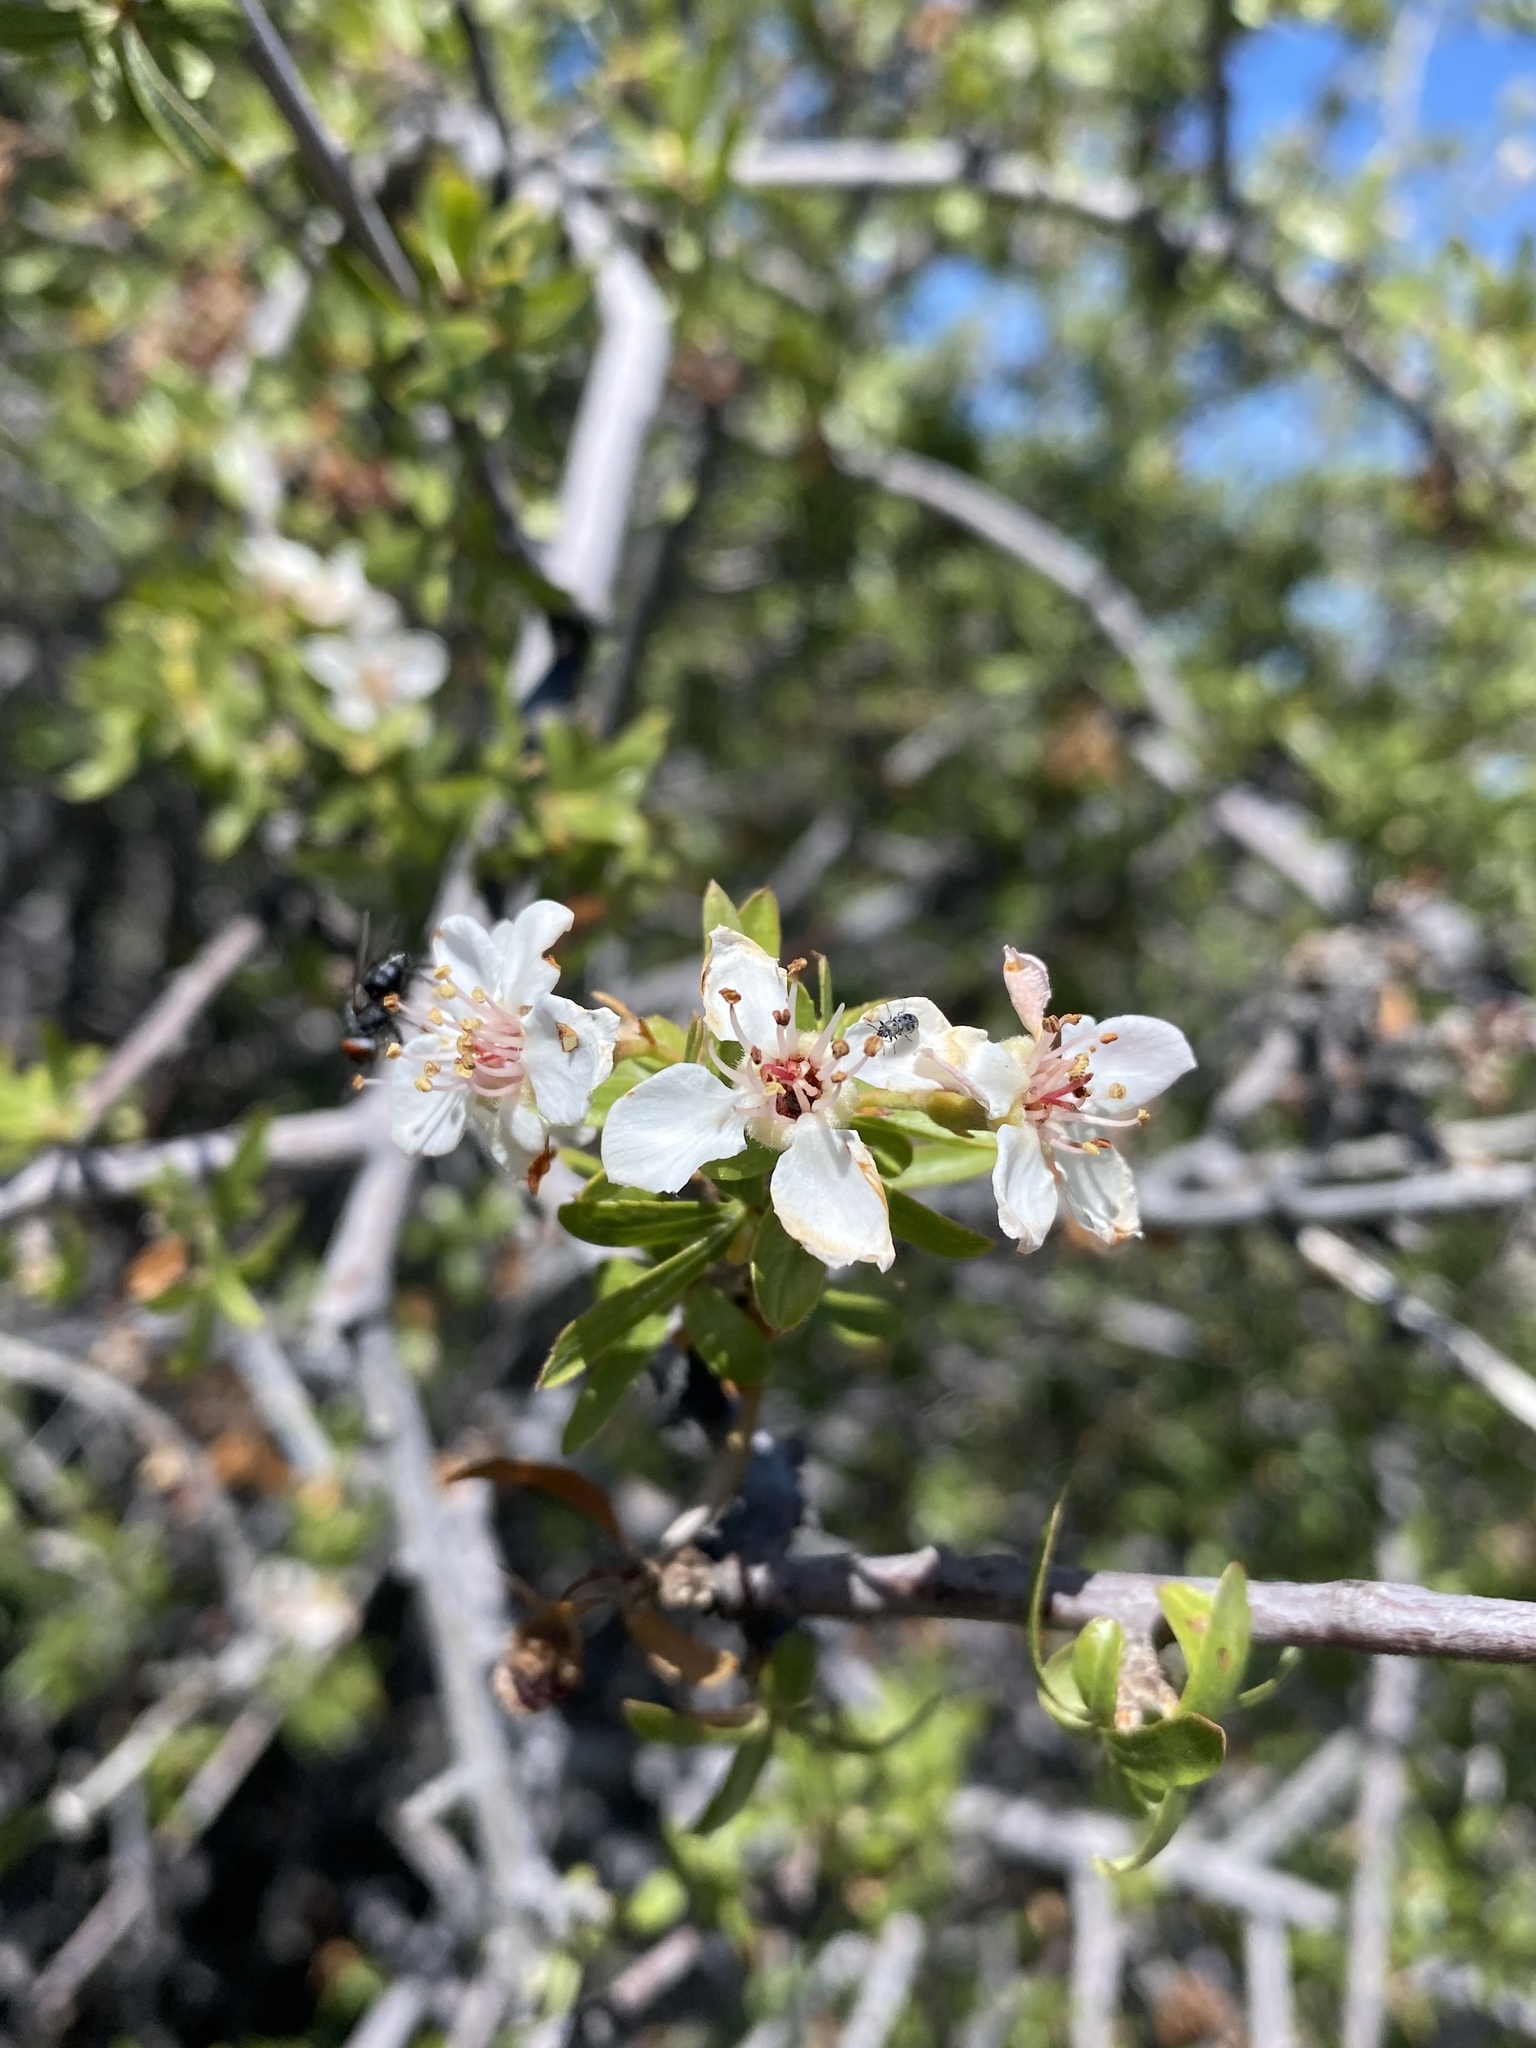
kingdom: Plantae
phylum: Tracheophyta
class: Magnoliopsida
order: Rosales
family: Rosaceae
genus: Amelanchier
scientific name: Amelanchier ramosissima
